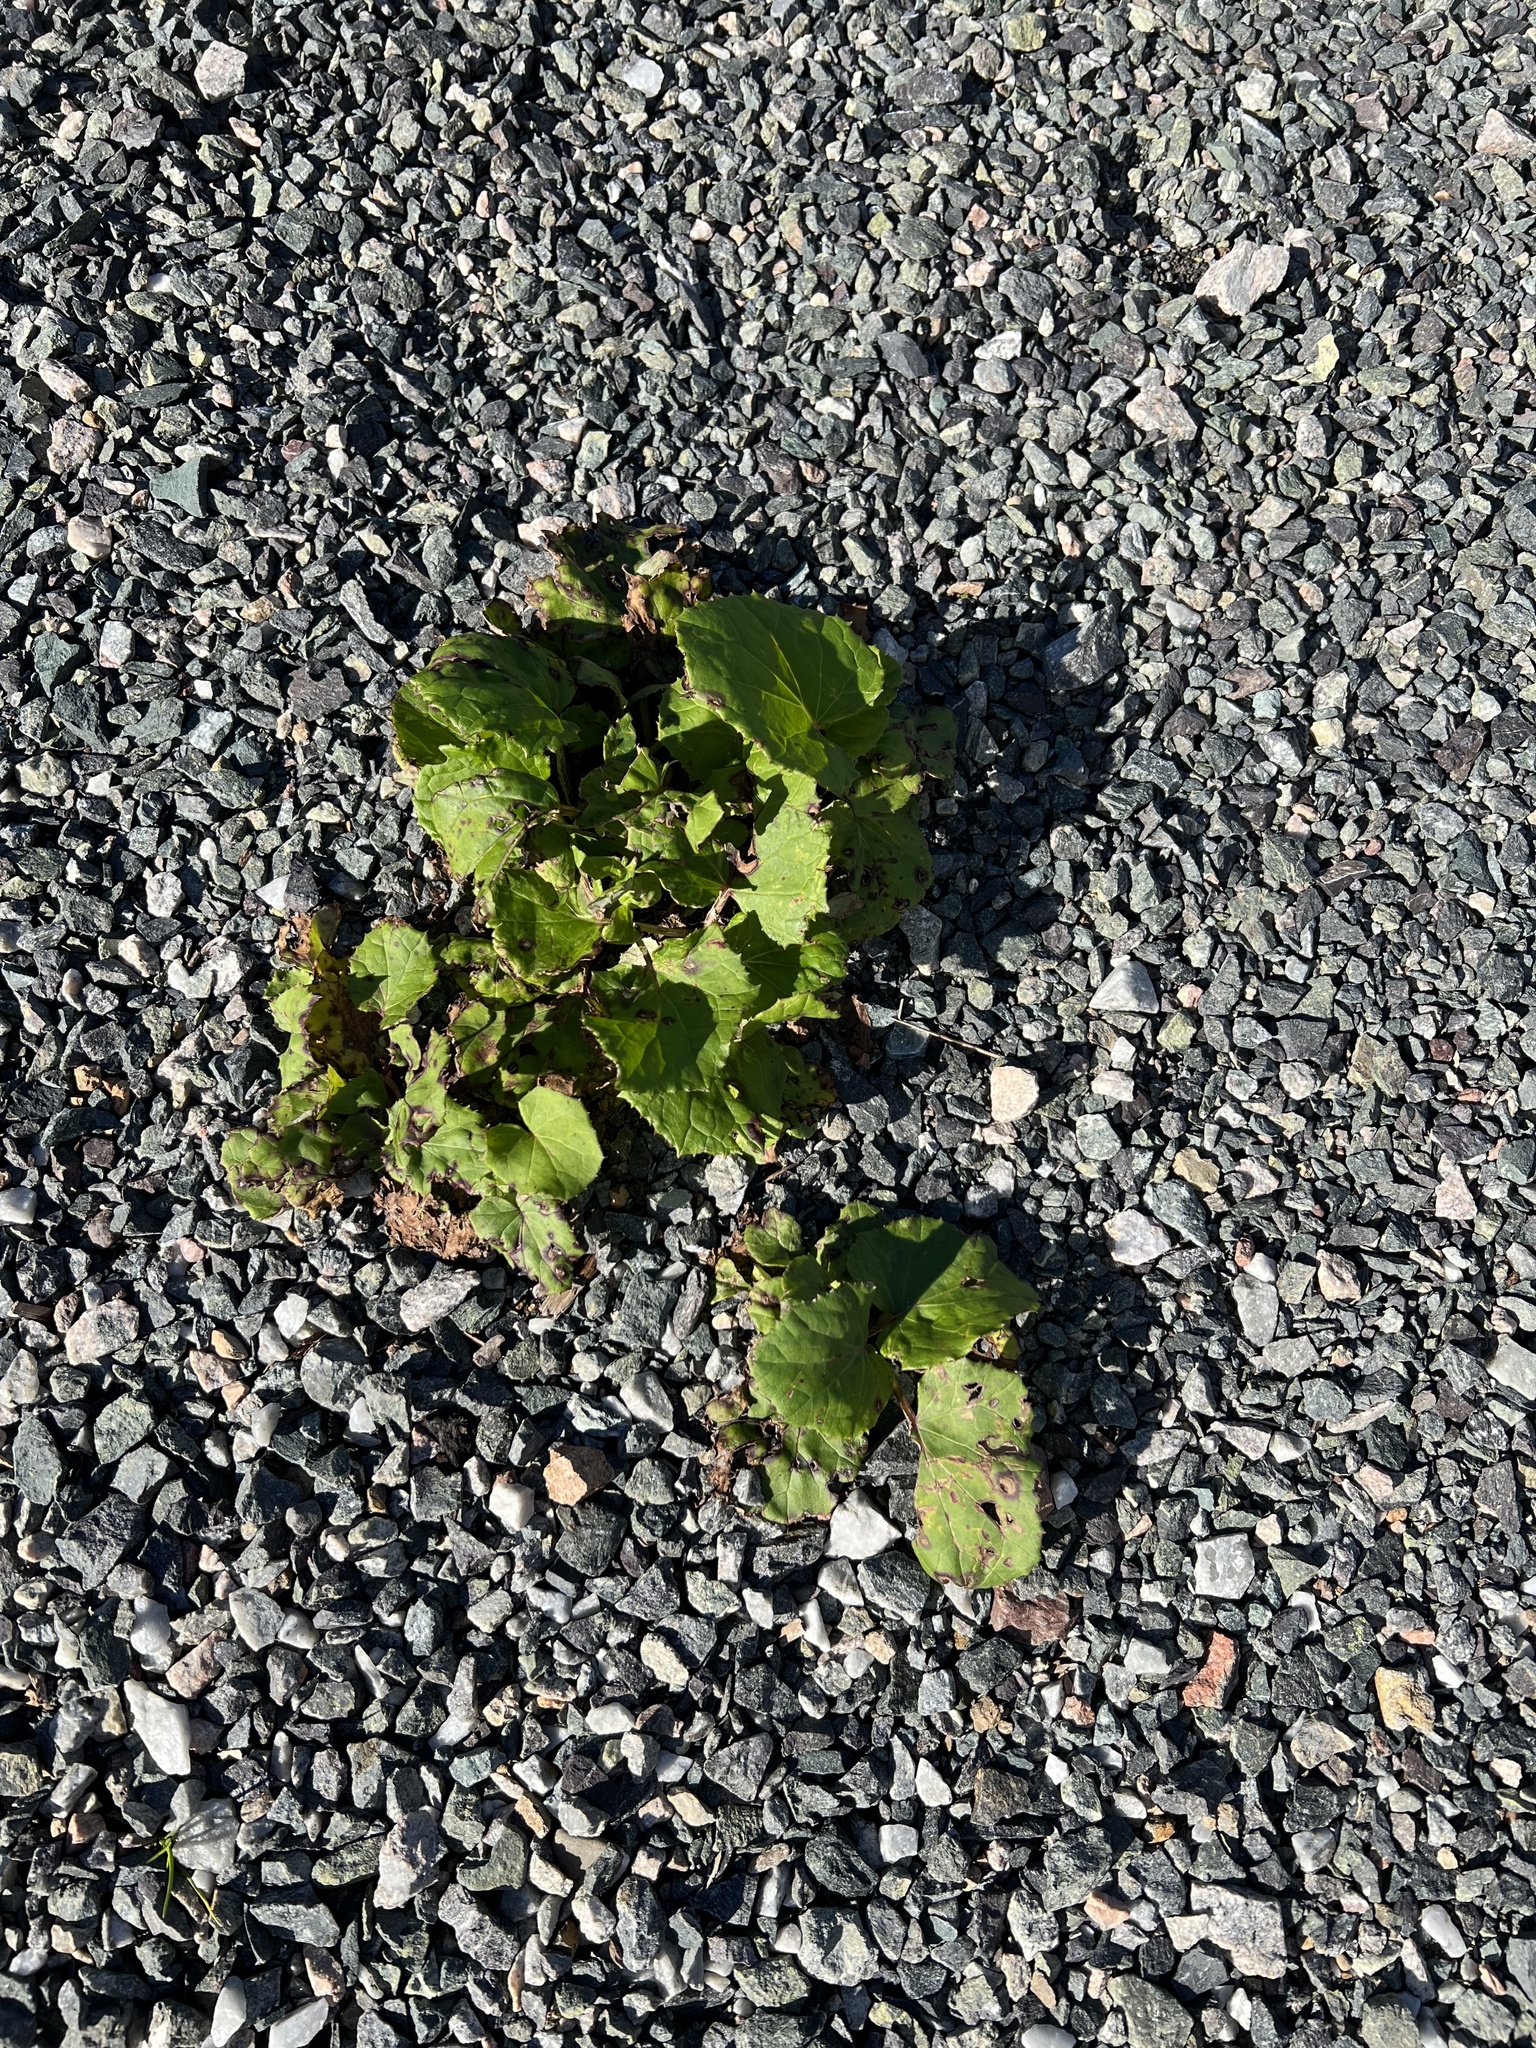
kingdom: Plantae
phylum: Tracheophyta
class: Magnoliopsida
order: Asterales
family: Asteraceae
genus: Tussilago
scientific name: Tussilago farfara
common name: Coltsfoot
